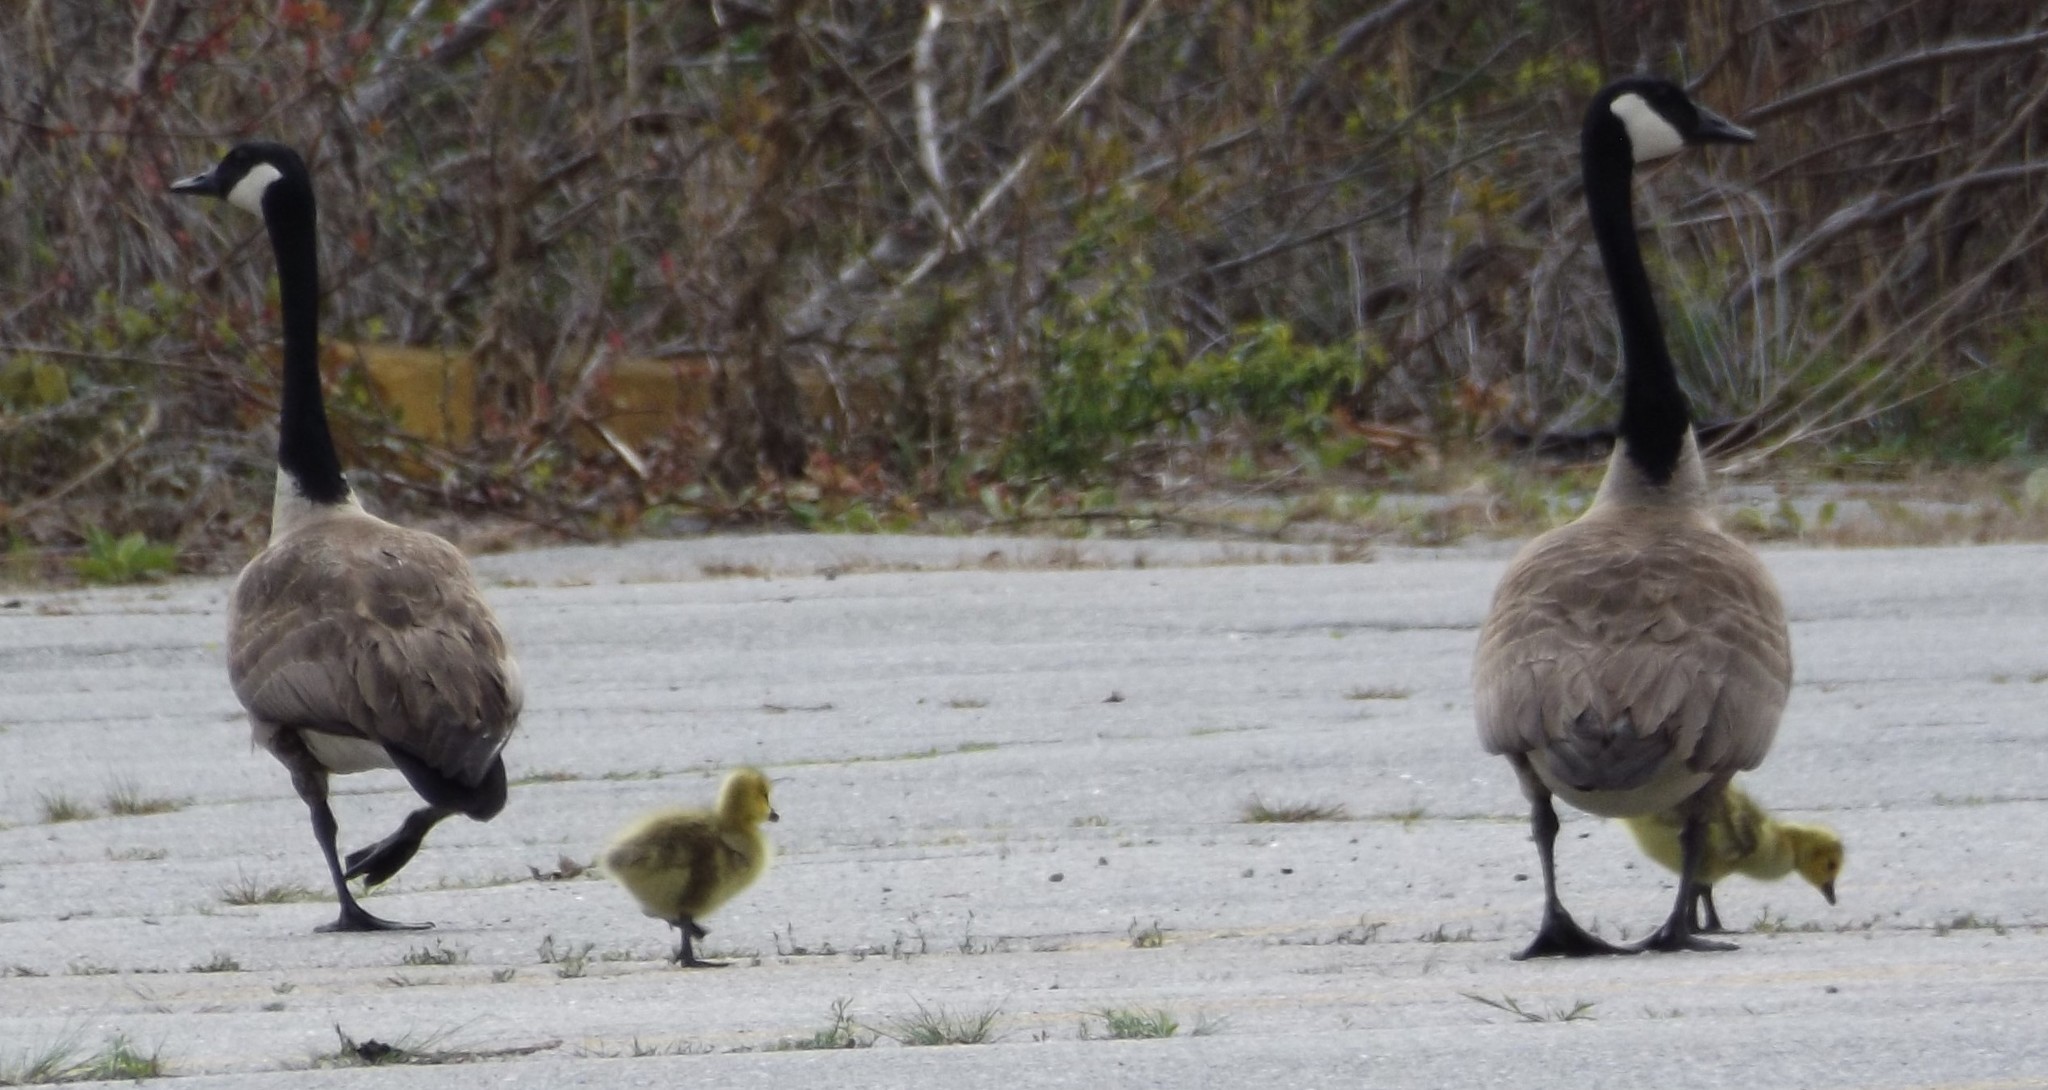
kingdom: Animalia
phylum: Chordata
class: Aves
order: Anseriformes
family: Anatidae
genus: Branta
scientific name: Branta canadensis
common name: Canada goose
